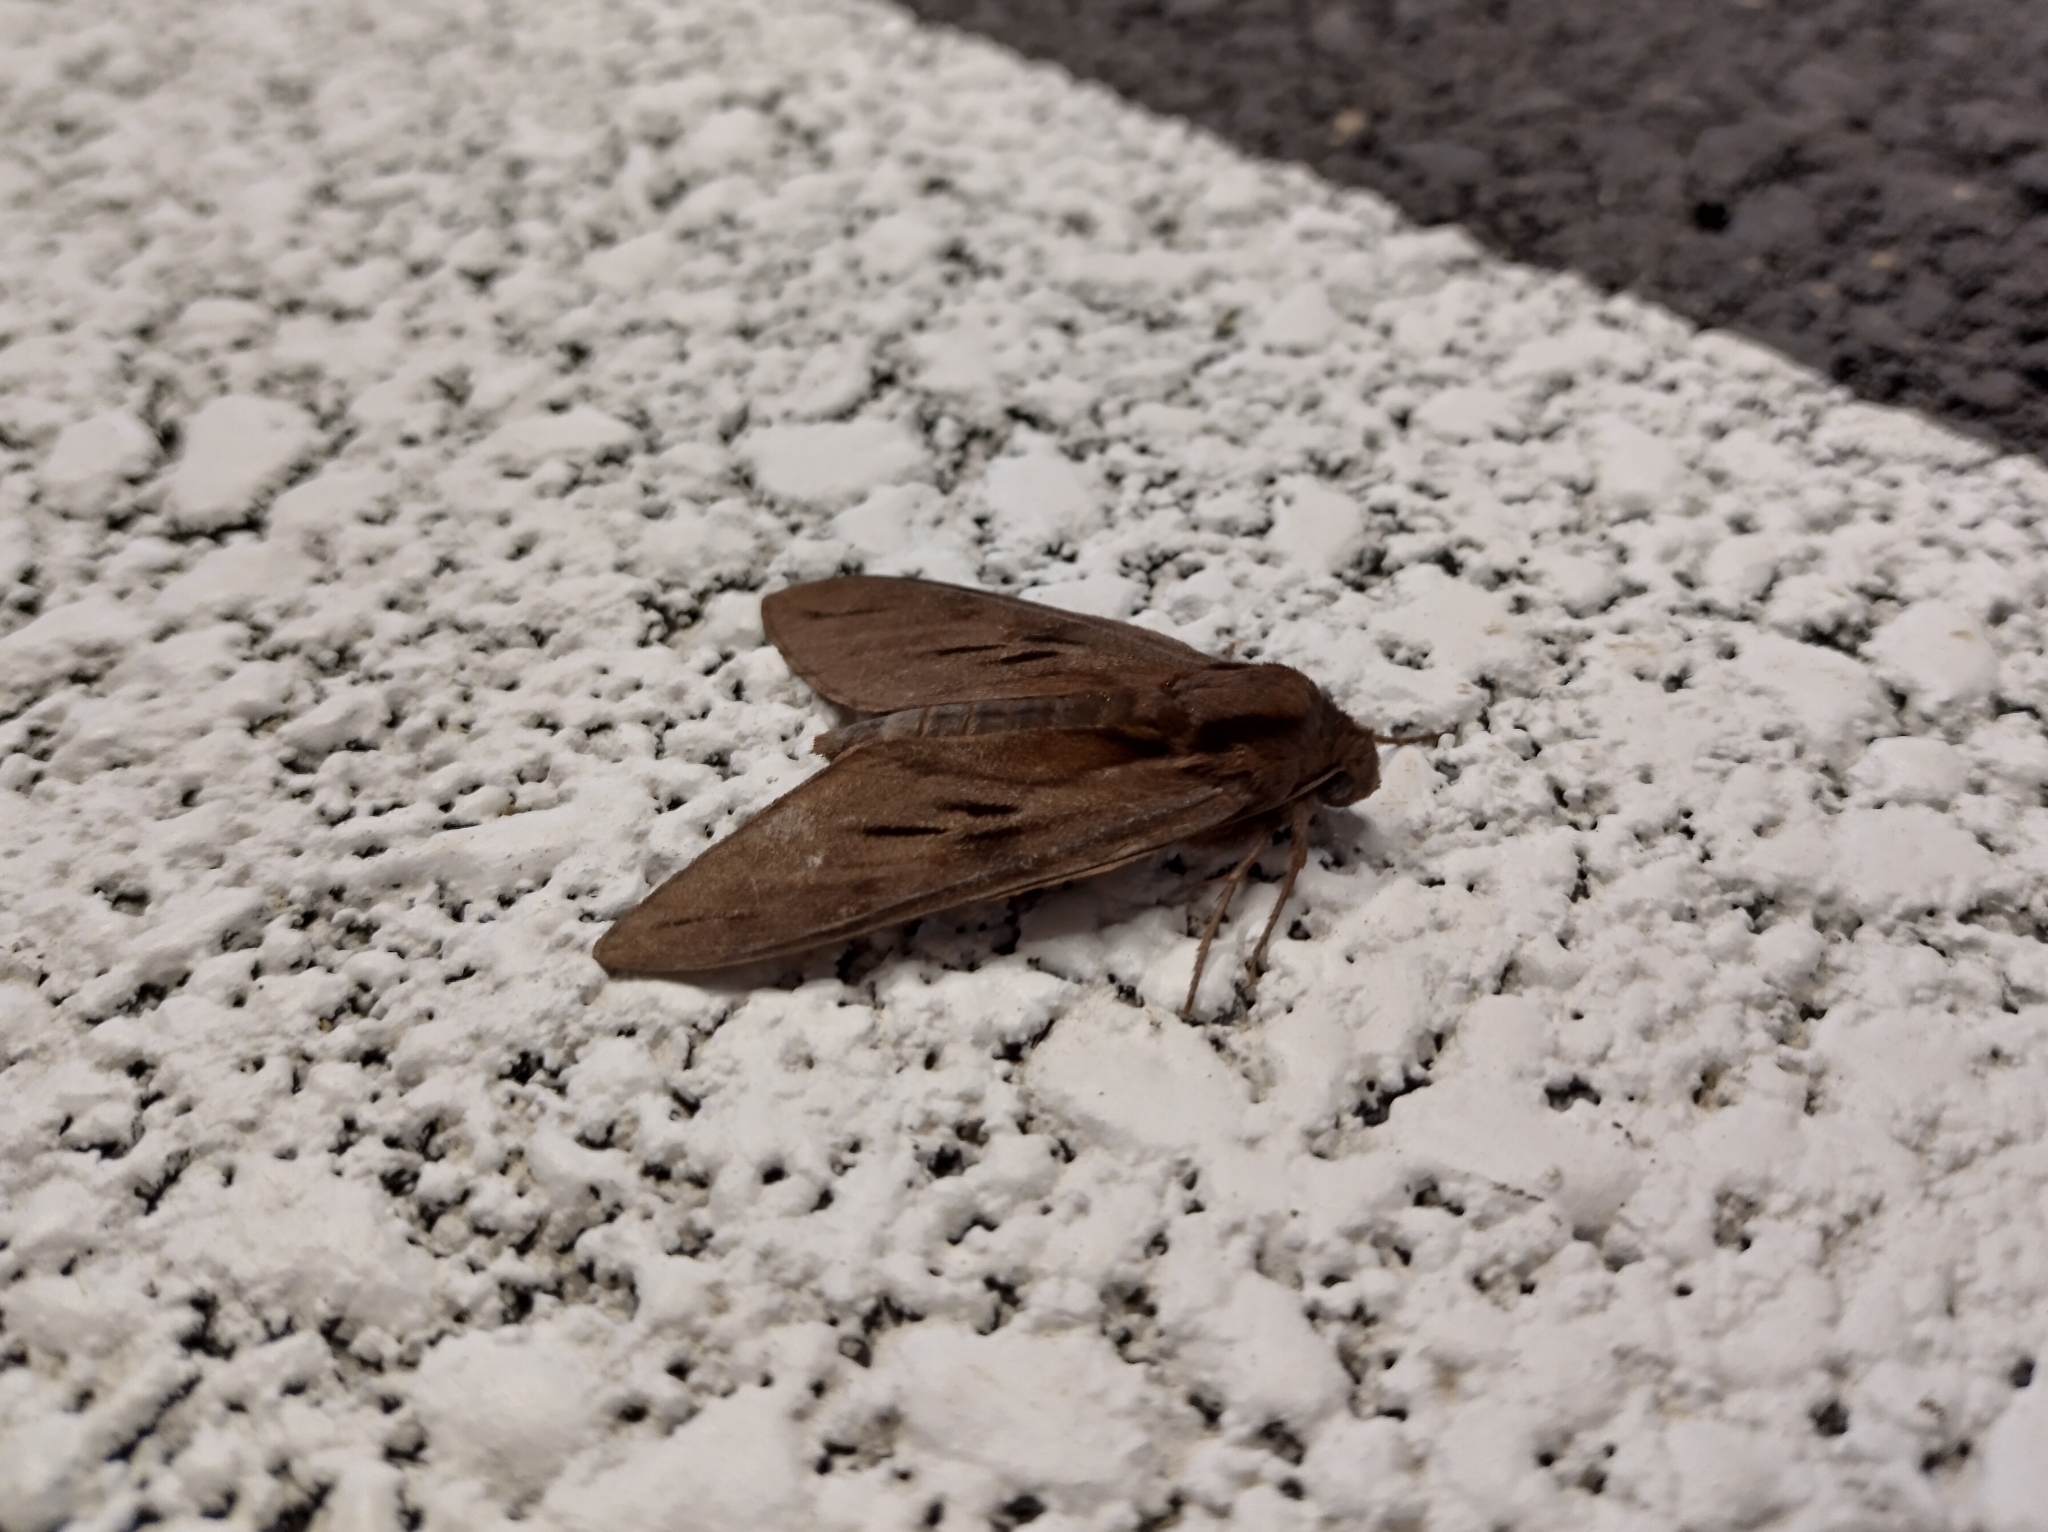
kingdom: Animalia
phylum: Arthropoda
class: Insecta
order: Lepidoptera
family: Sphingidae
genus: Sphinx
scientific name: Sphinx pinastri
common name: Pine hawk-moth
